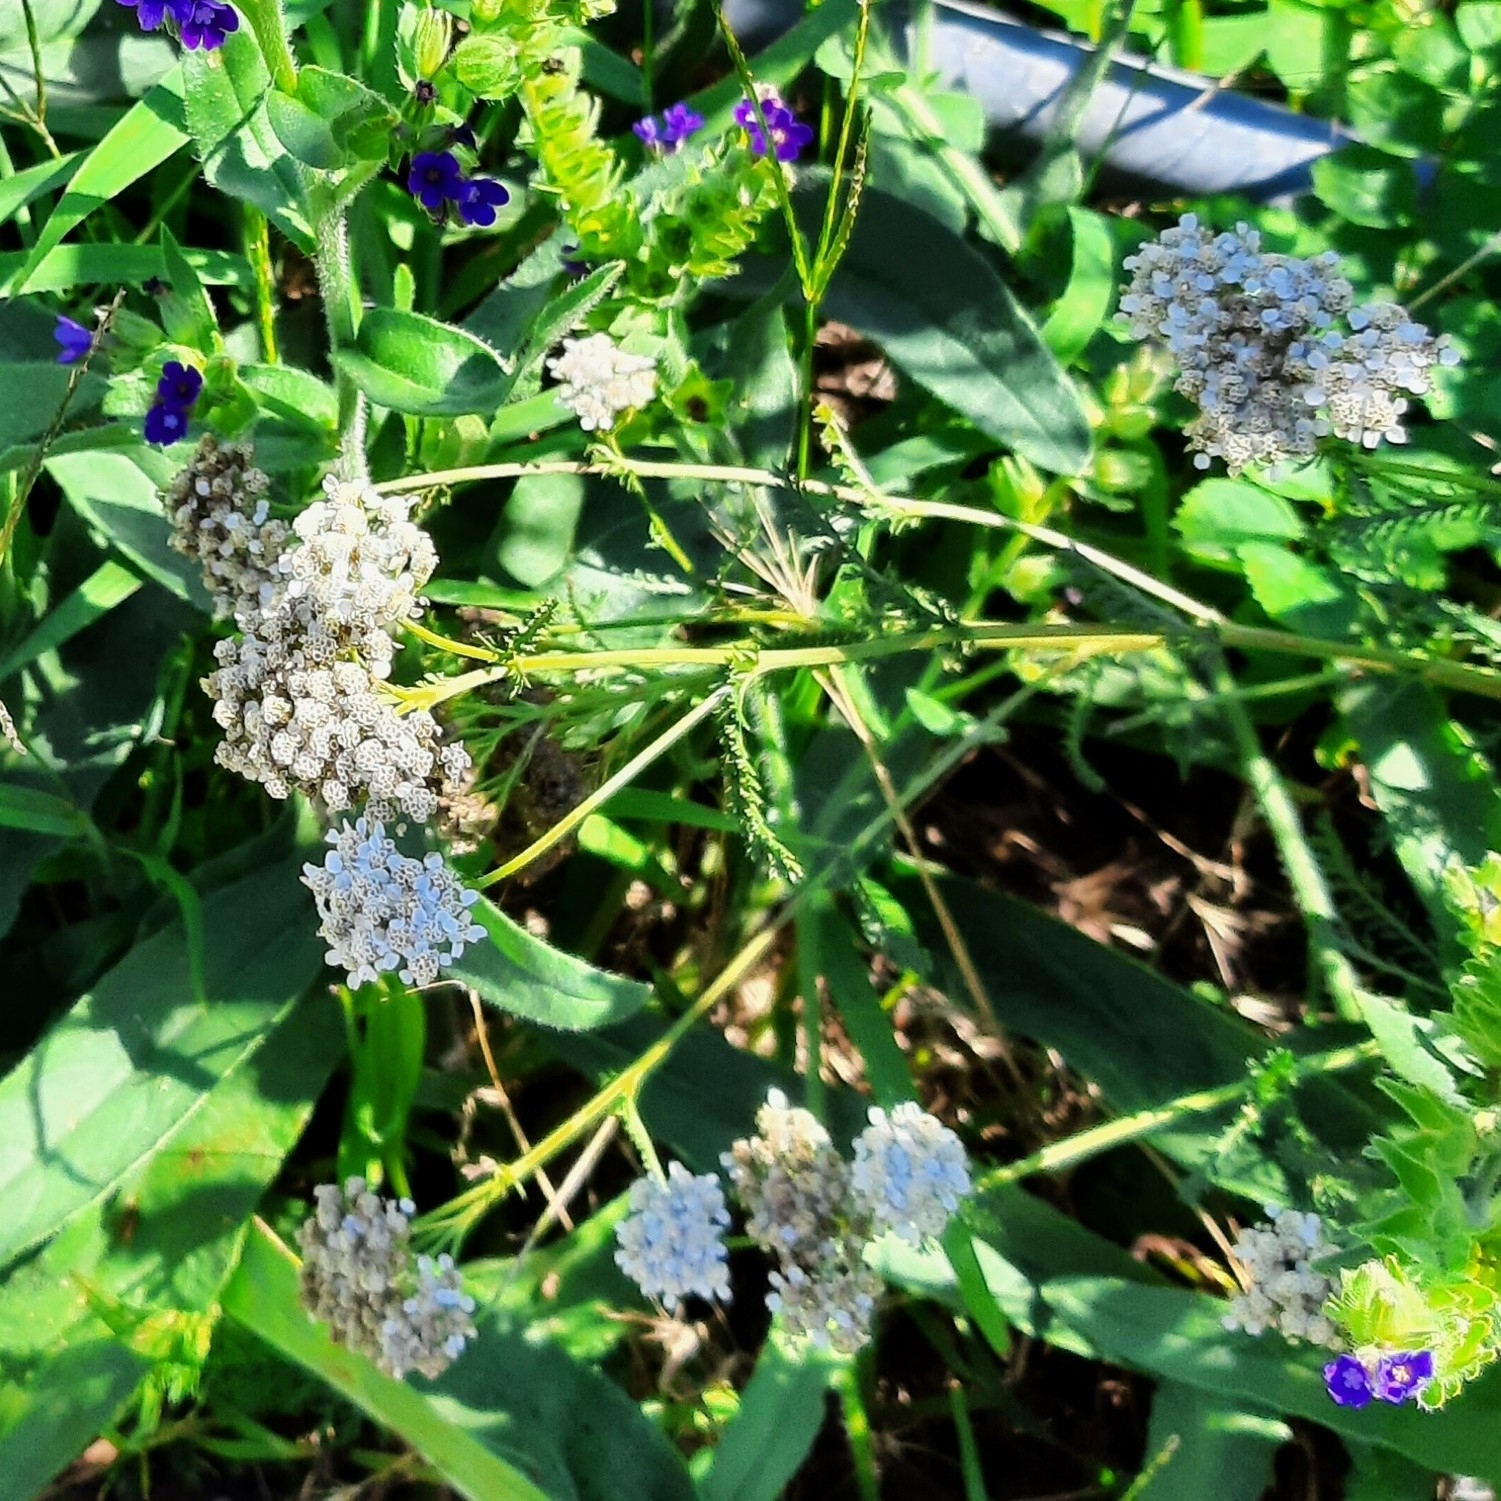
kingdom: Plantae
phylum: Tracheophyta
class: Magnoliopsida
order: Asterales
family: Asteraceae
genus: Achillea
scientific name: Achillea
